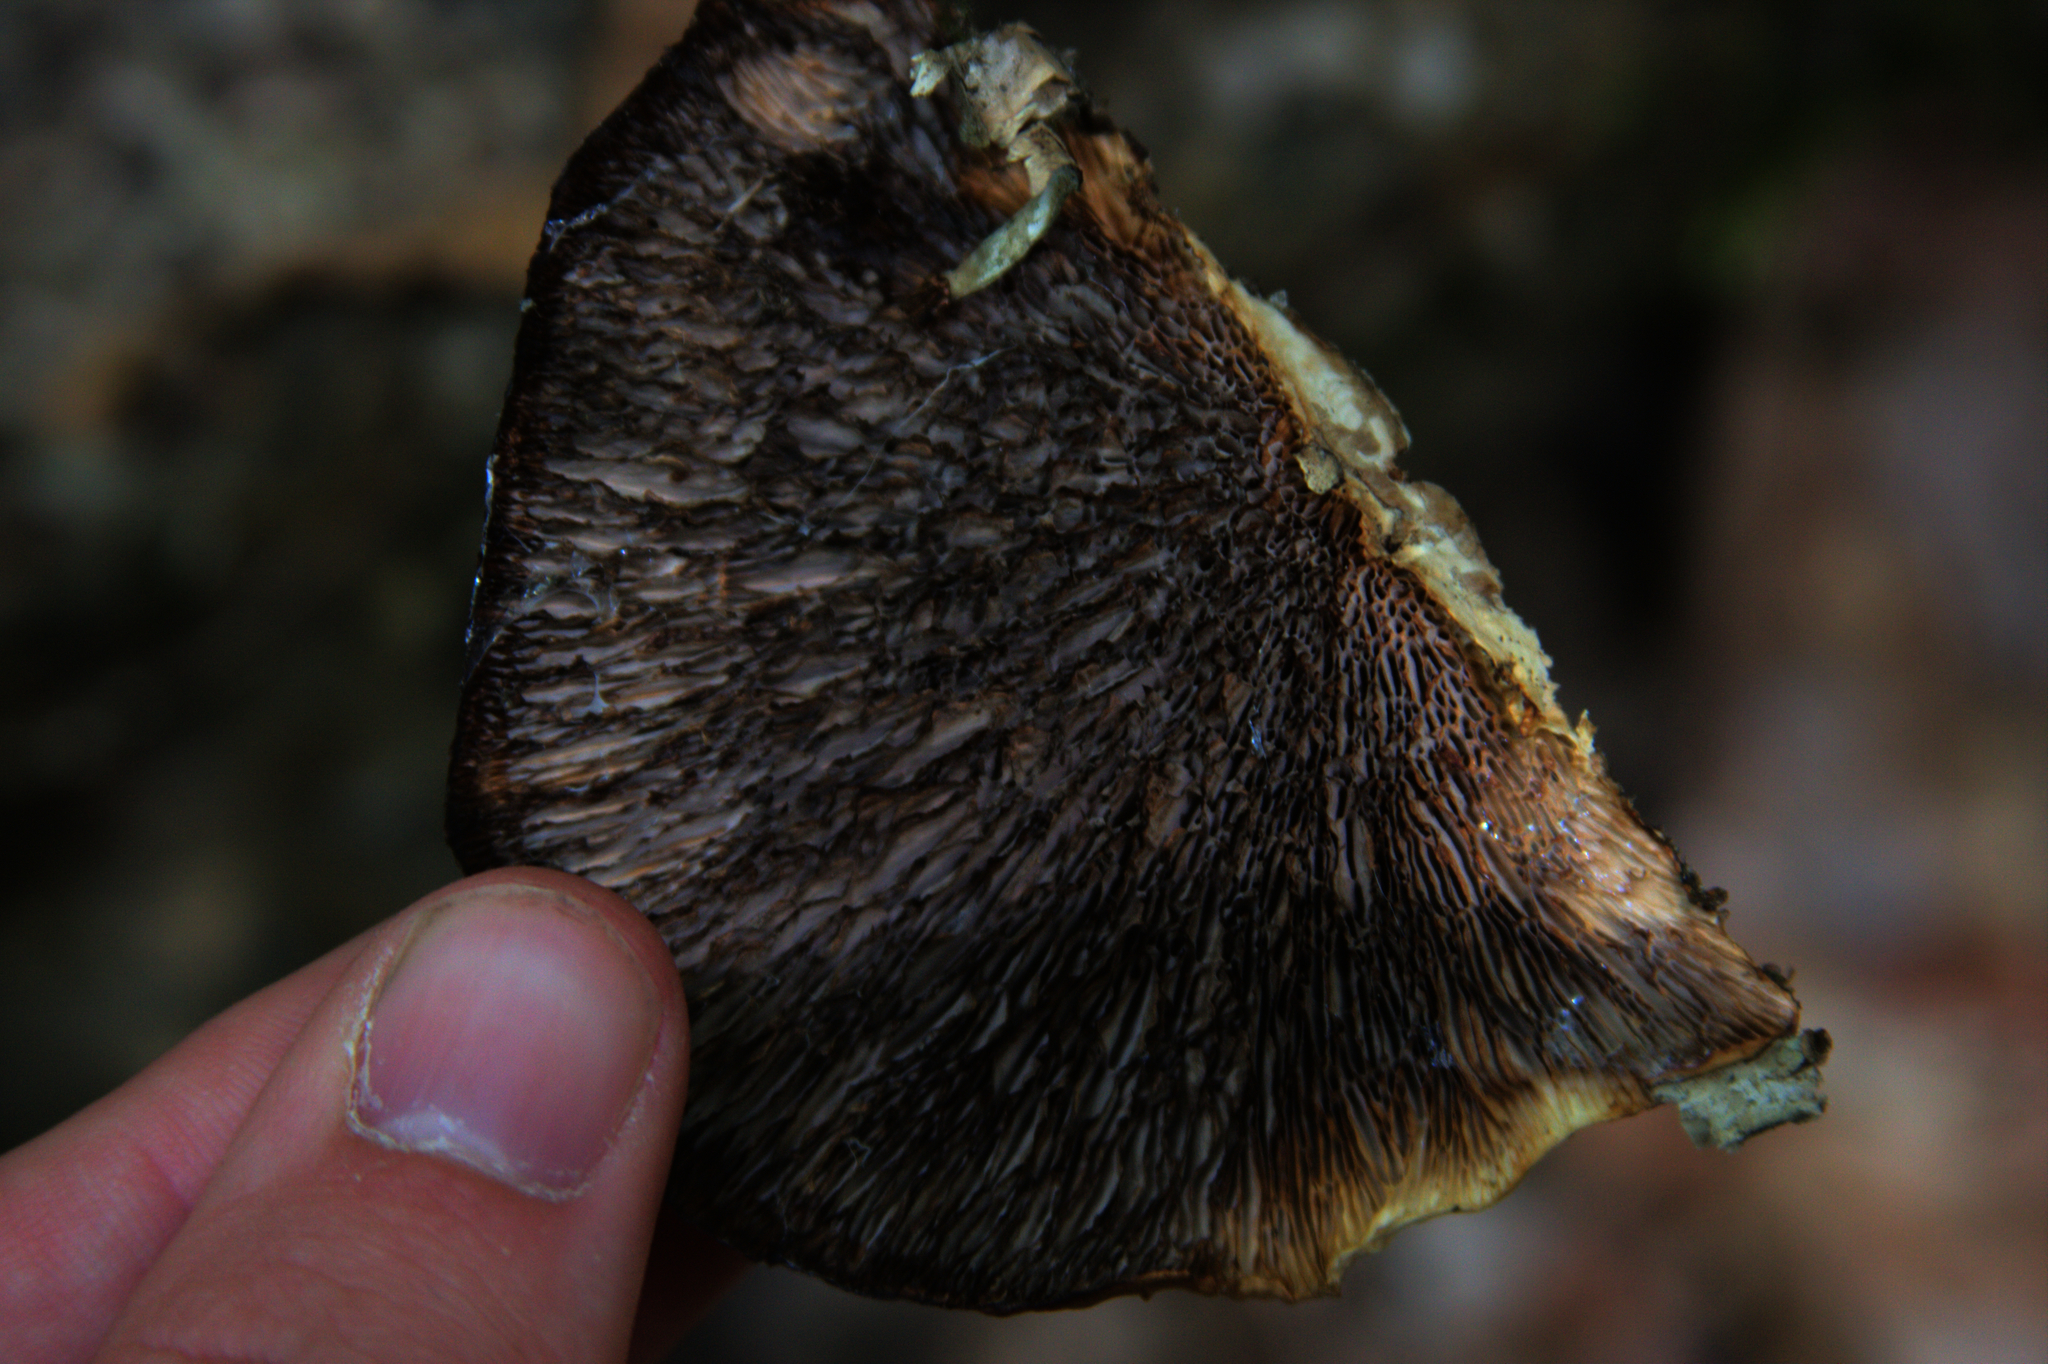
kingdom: Fungi
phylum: Basidiomycota
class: Agaricomycetes
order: Polyporales
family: Polyporaceae
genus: Daedaleopsis
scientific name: Daedaleopsis confragosa
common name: Blushing bracket
